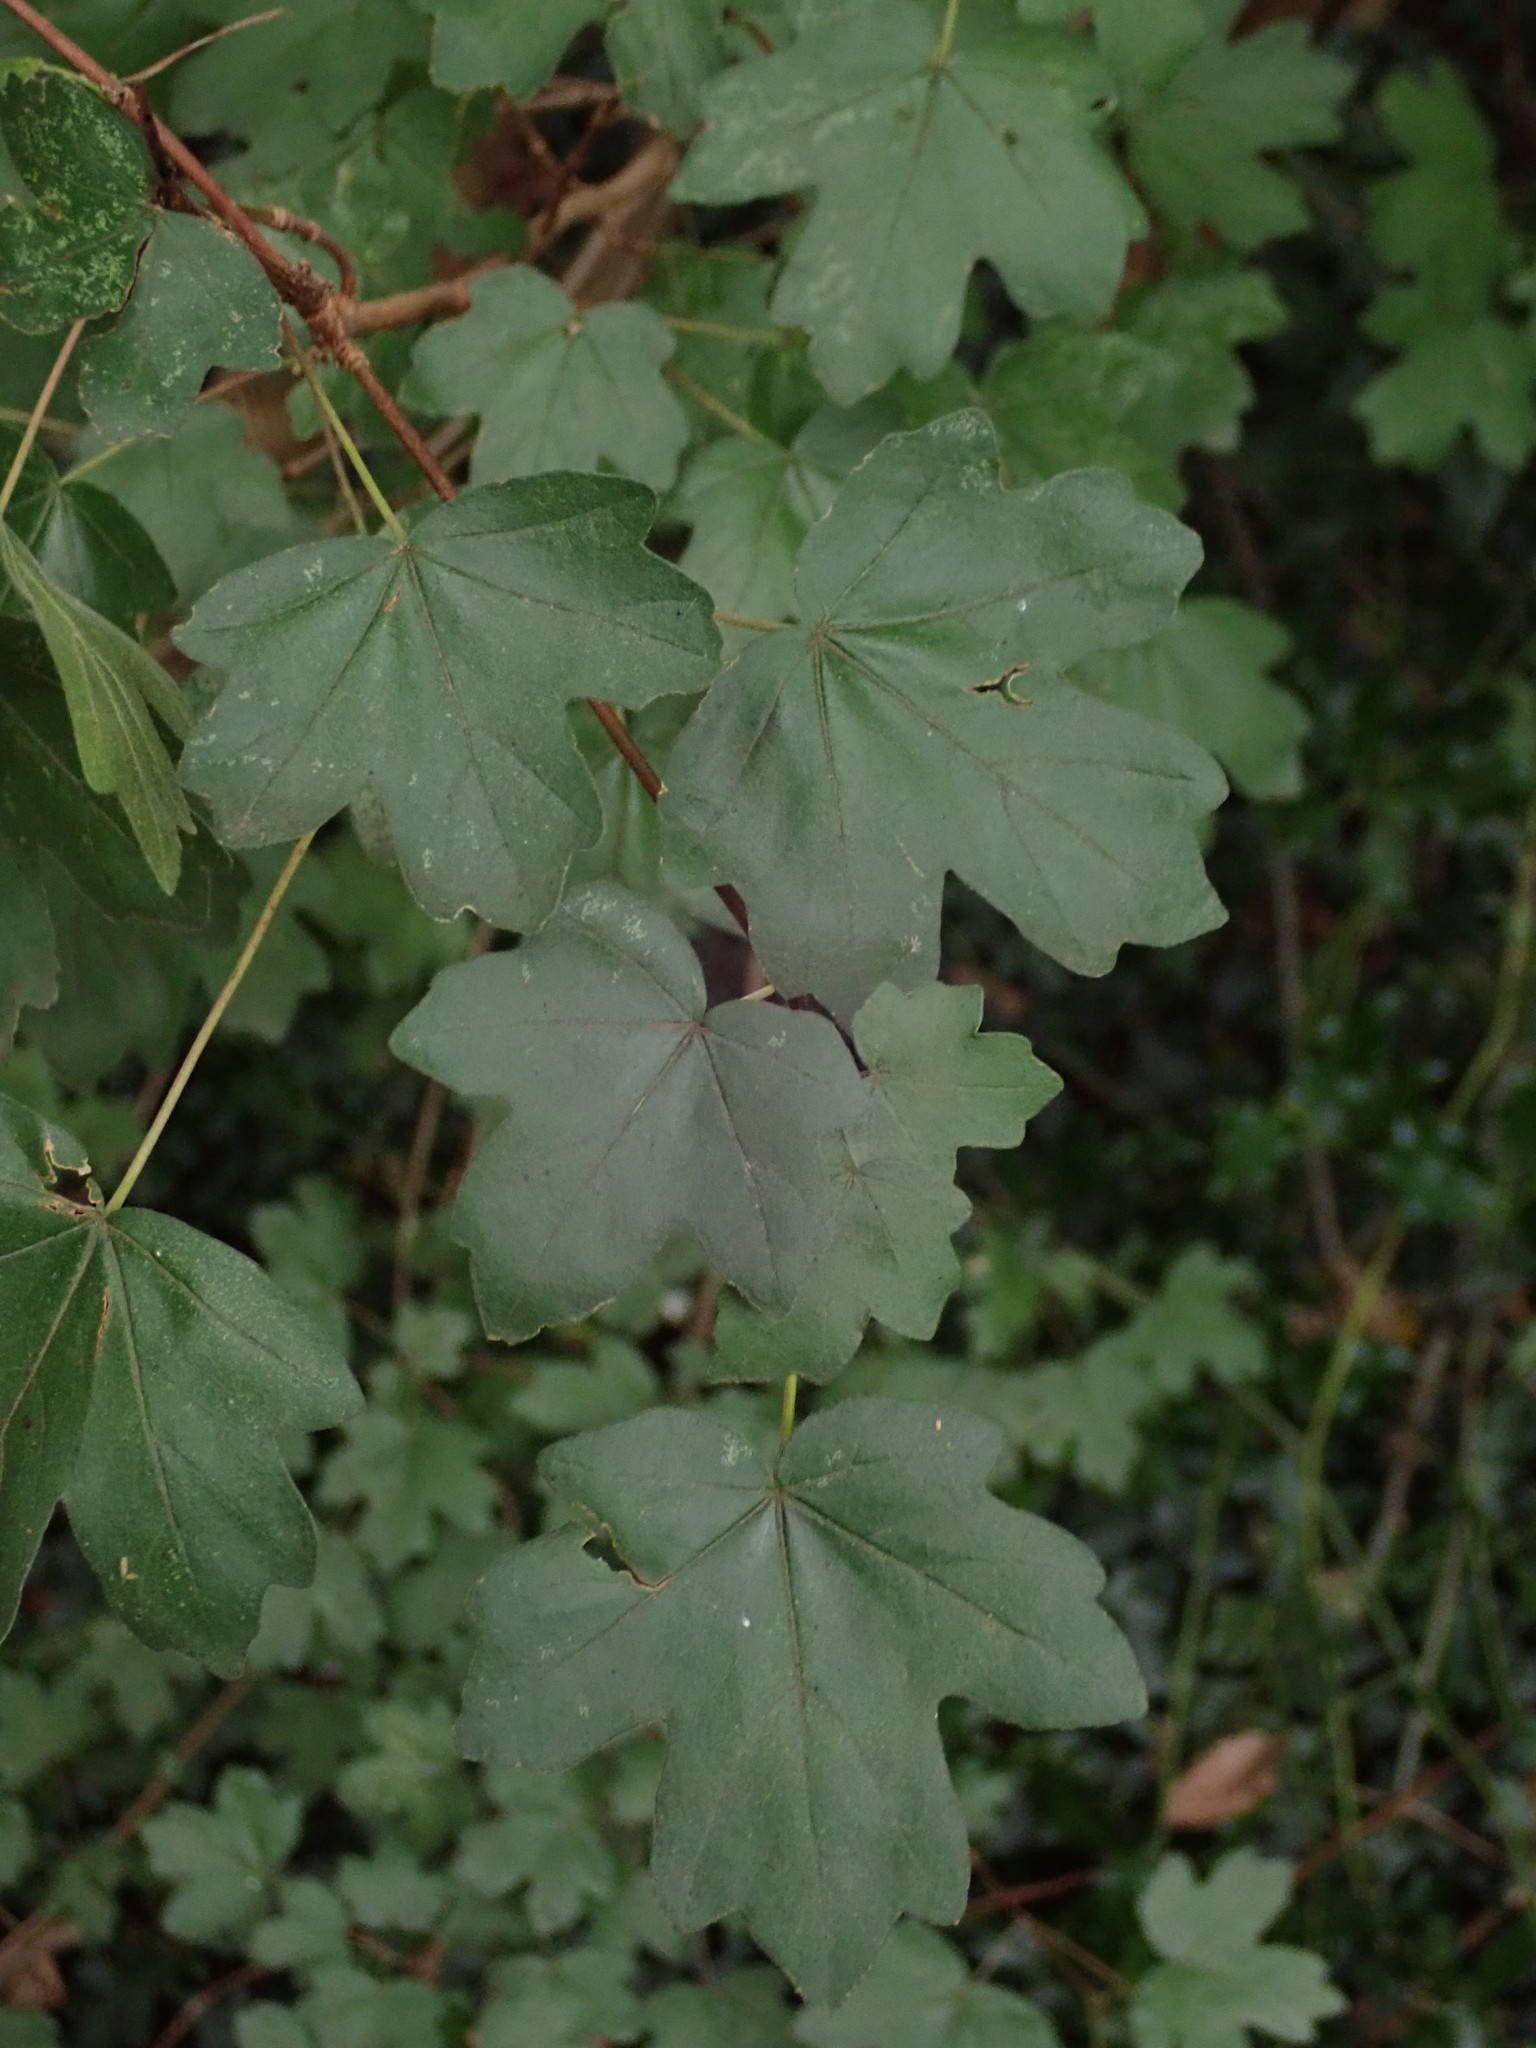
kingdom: Plantae
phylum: Tracheophyta
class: Magnoliopsida
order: Sapindales
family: Sapindaceae
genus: Acer
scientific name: Acer campestre
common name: Field maple
